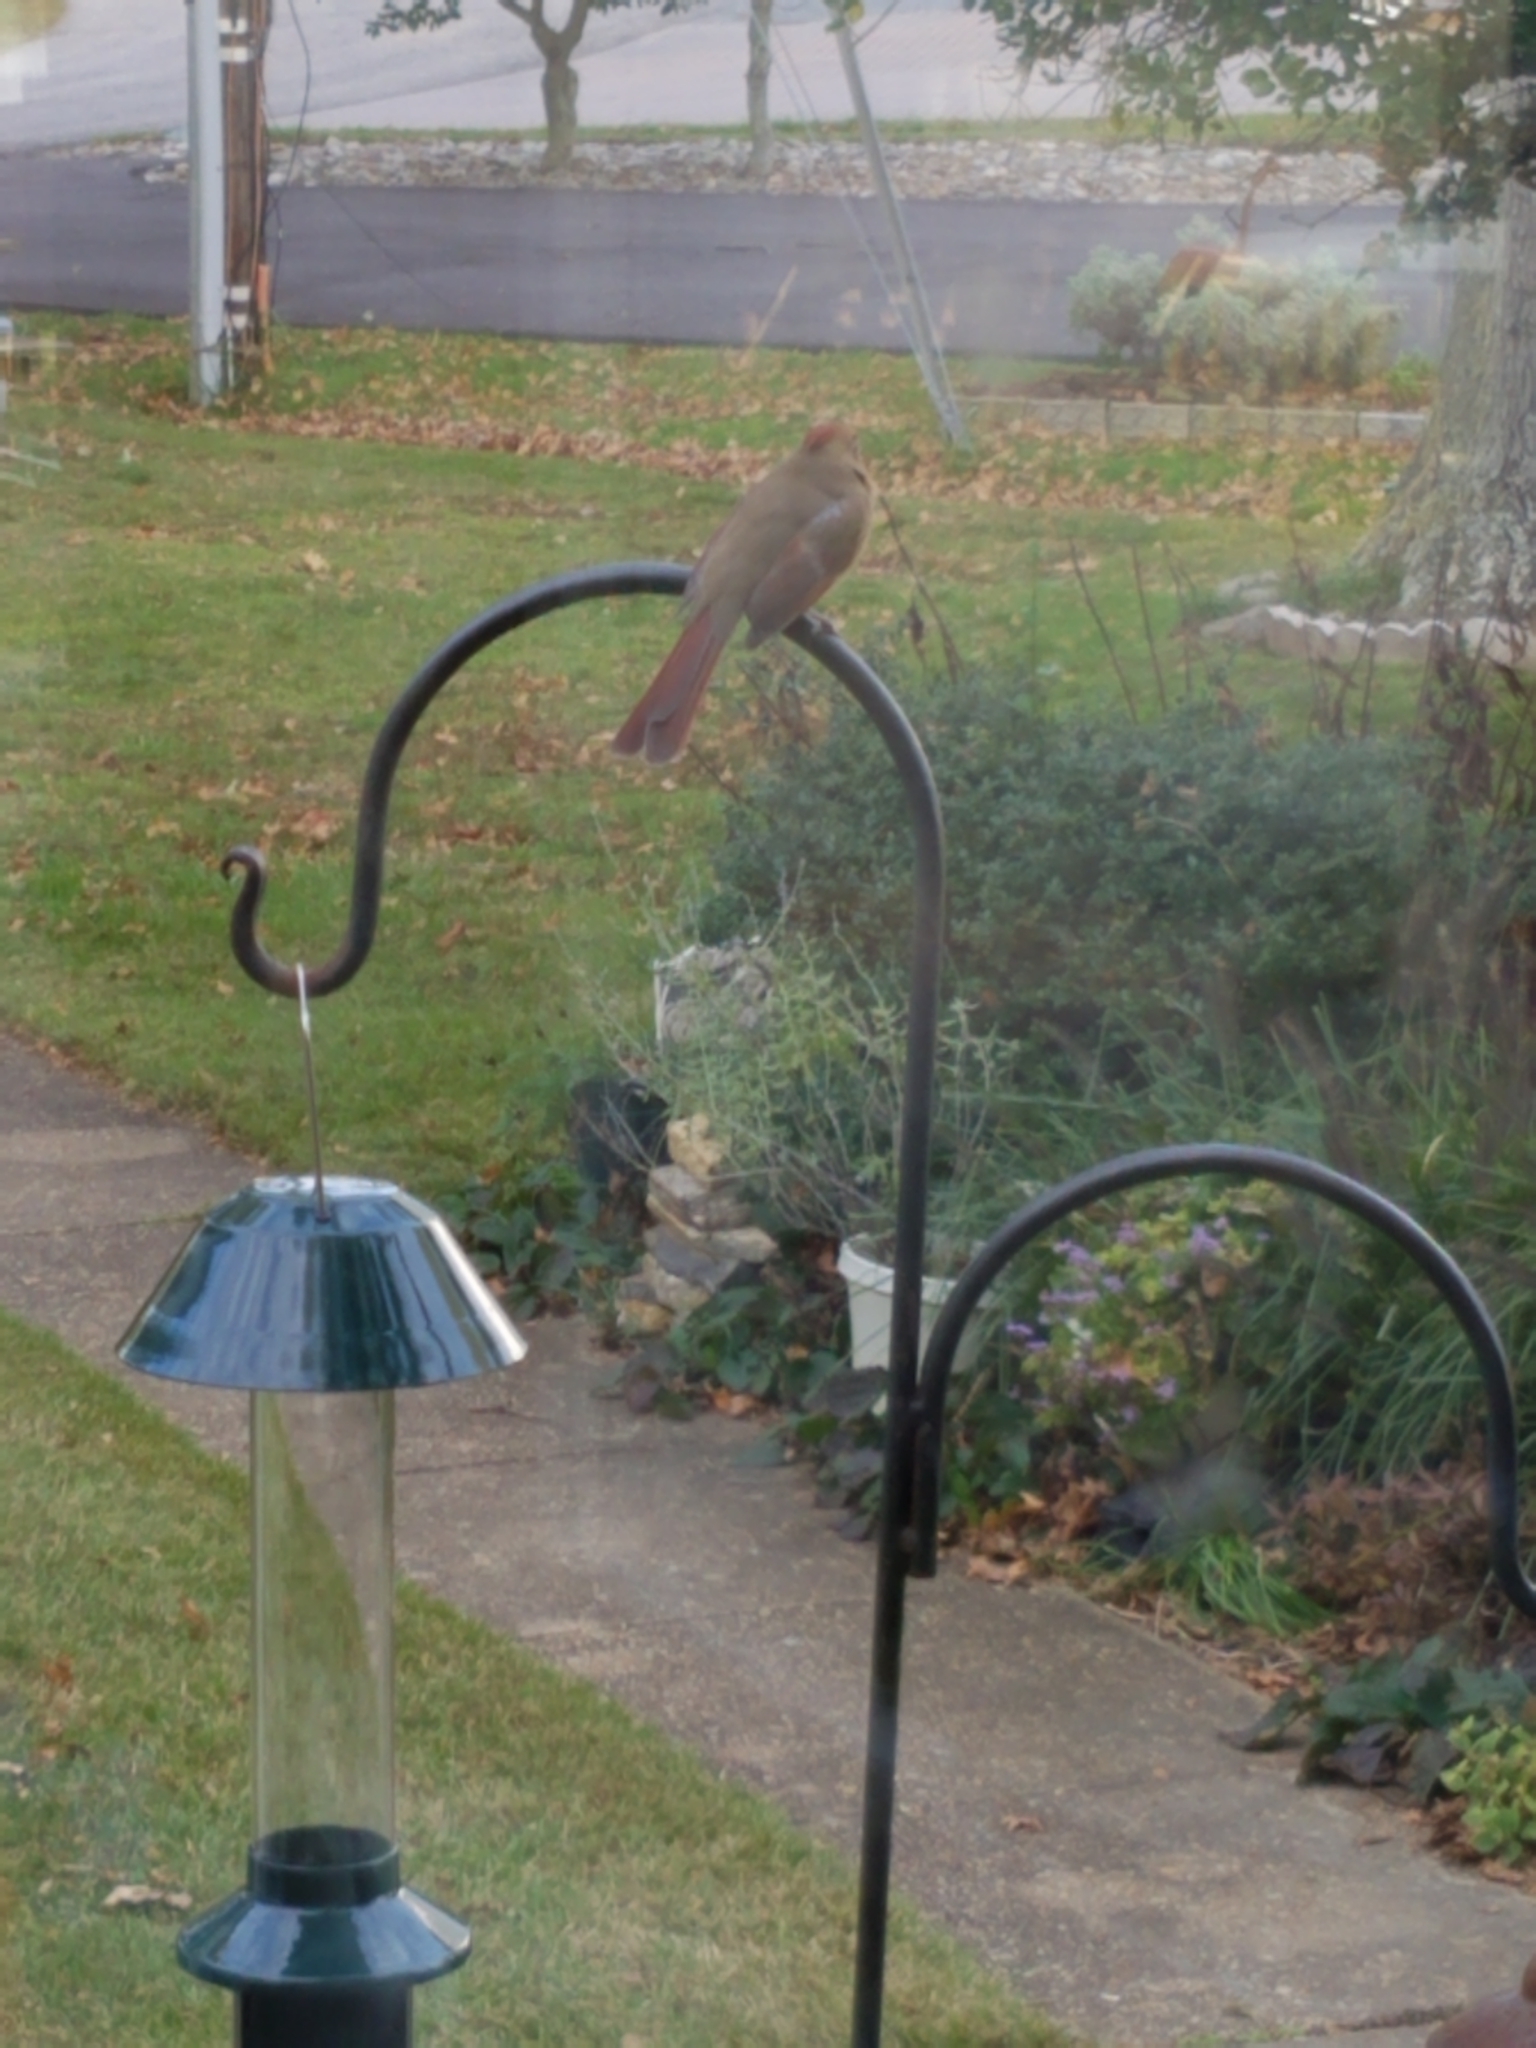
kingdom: Animalia
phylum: Chordata
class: Aves
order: Passeriformes
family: Cardinalidae
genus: Cardinalis
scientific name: Cardinalis cardinalis
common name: Northern cardinal
